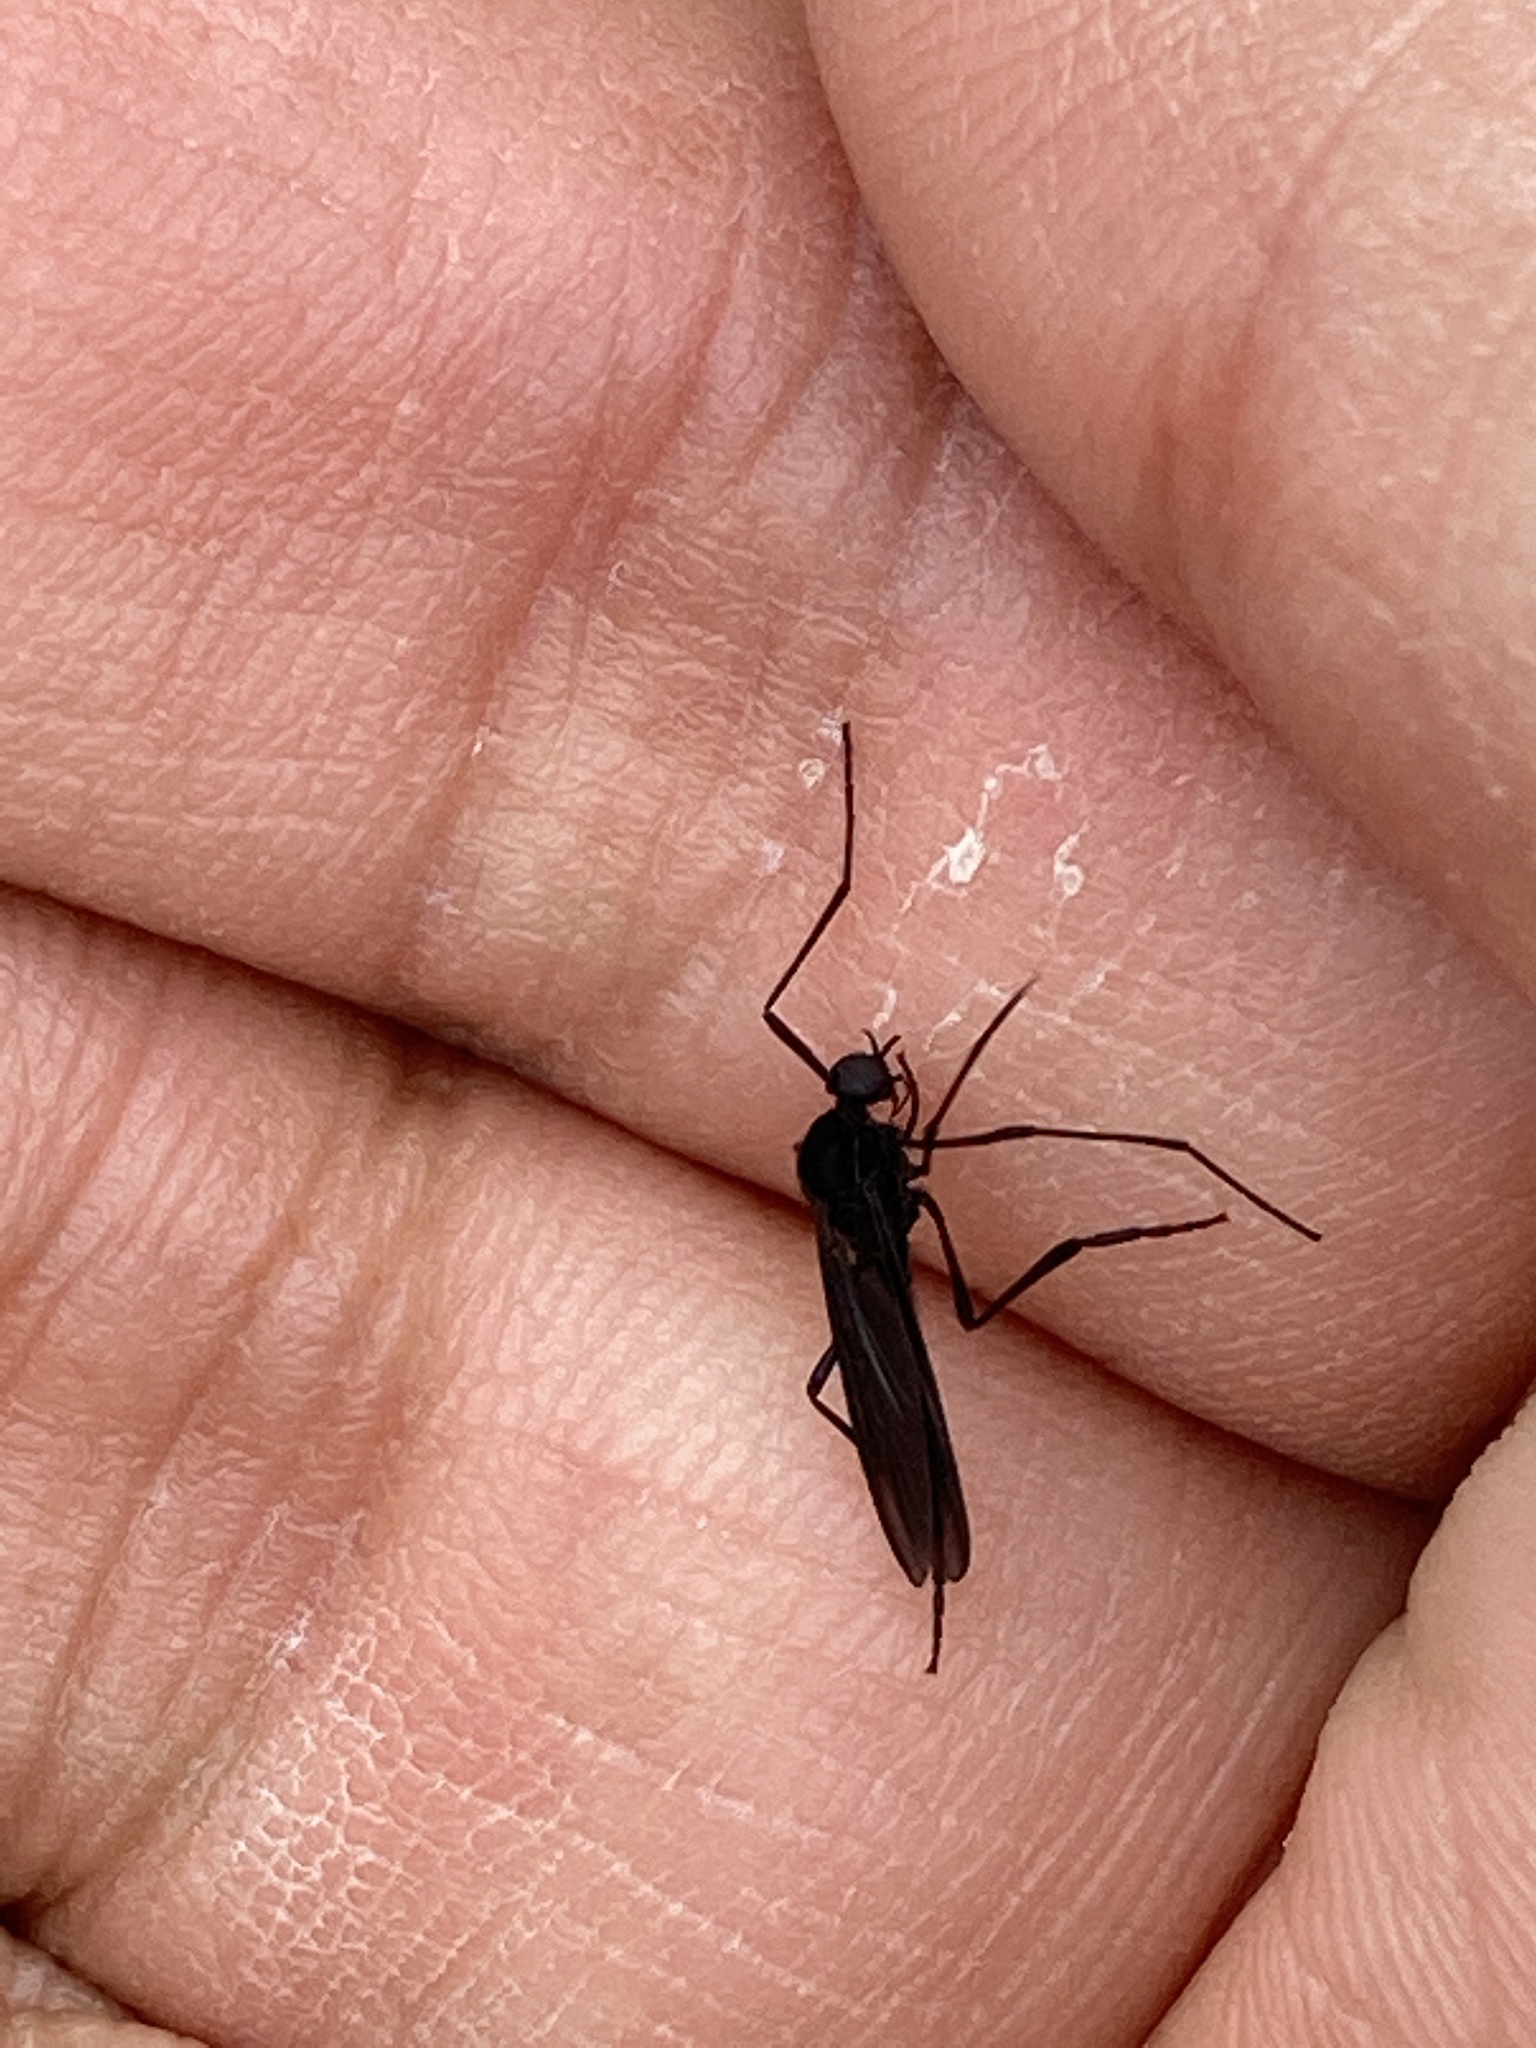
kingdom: Animalia
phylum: Arthropoda
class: Insecta
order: Diptera
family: Bibionidae
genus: Penthetria
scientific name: Penthetria heteroptera
